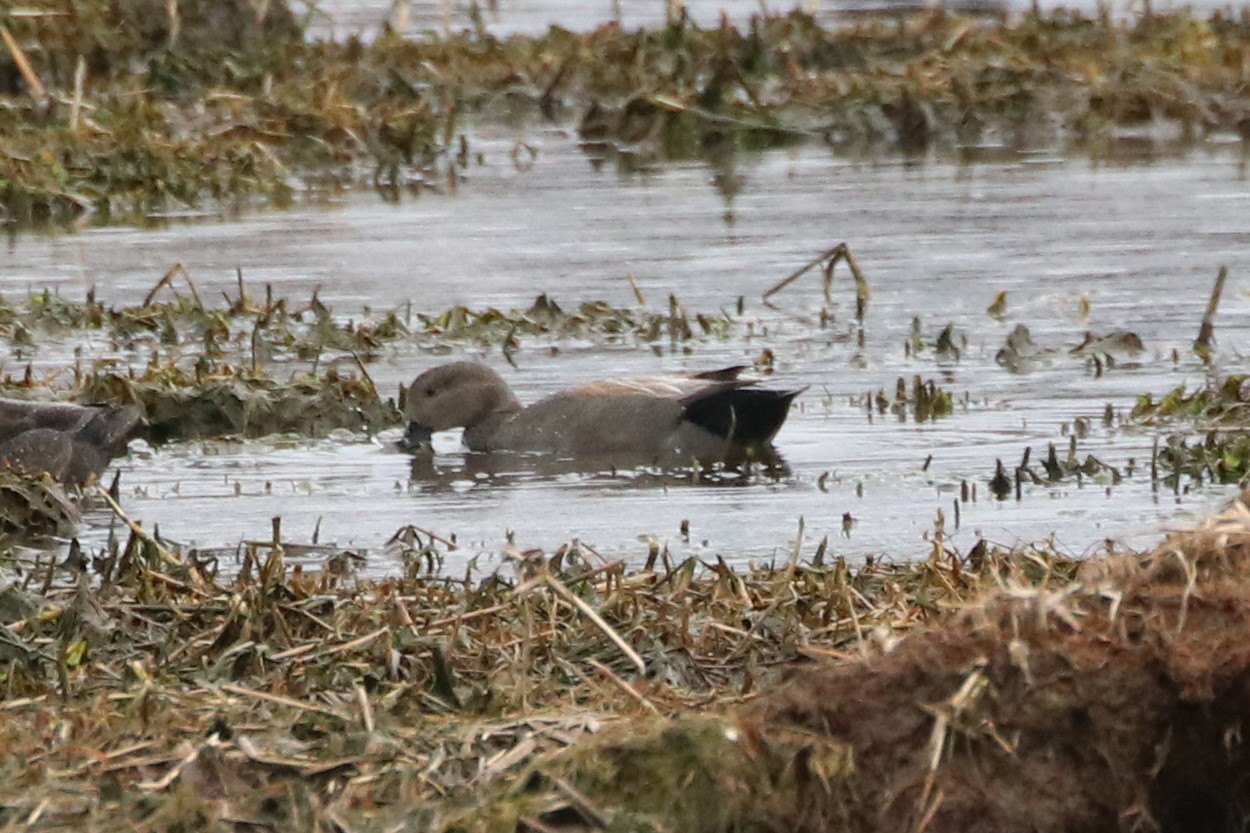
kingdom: Animalia
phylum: Chordata
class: Aves
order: Anseriformes
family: Anatidae
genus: Mareca
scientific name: Mareca strepera
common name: Gadwall
